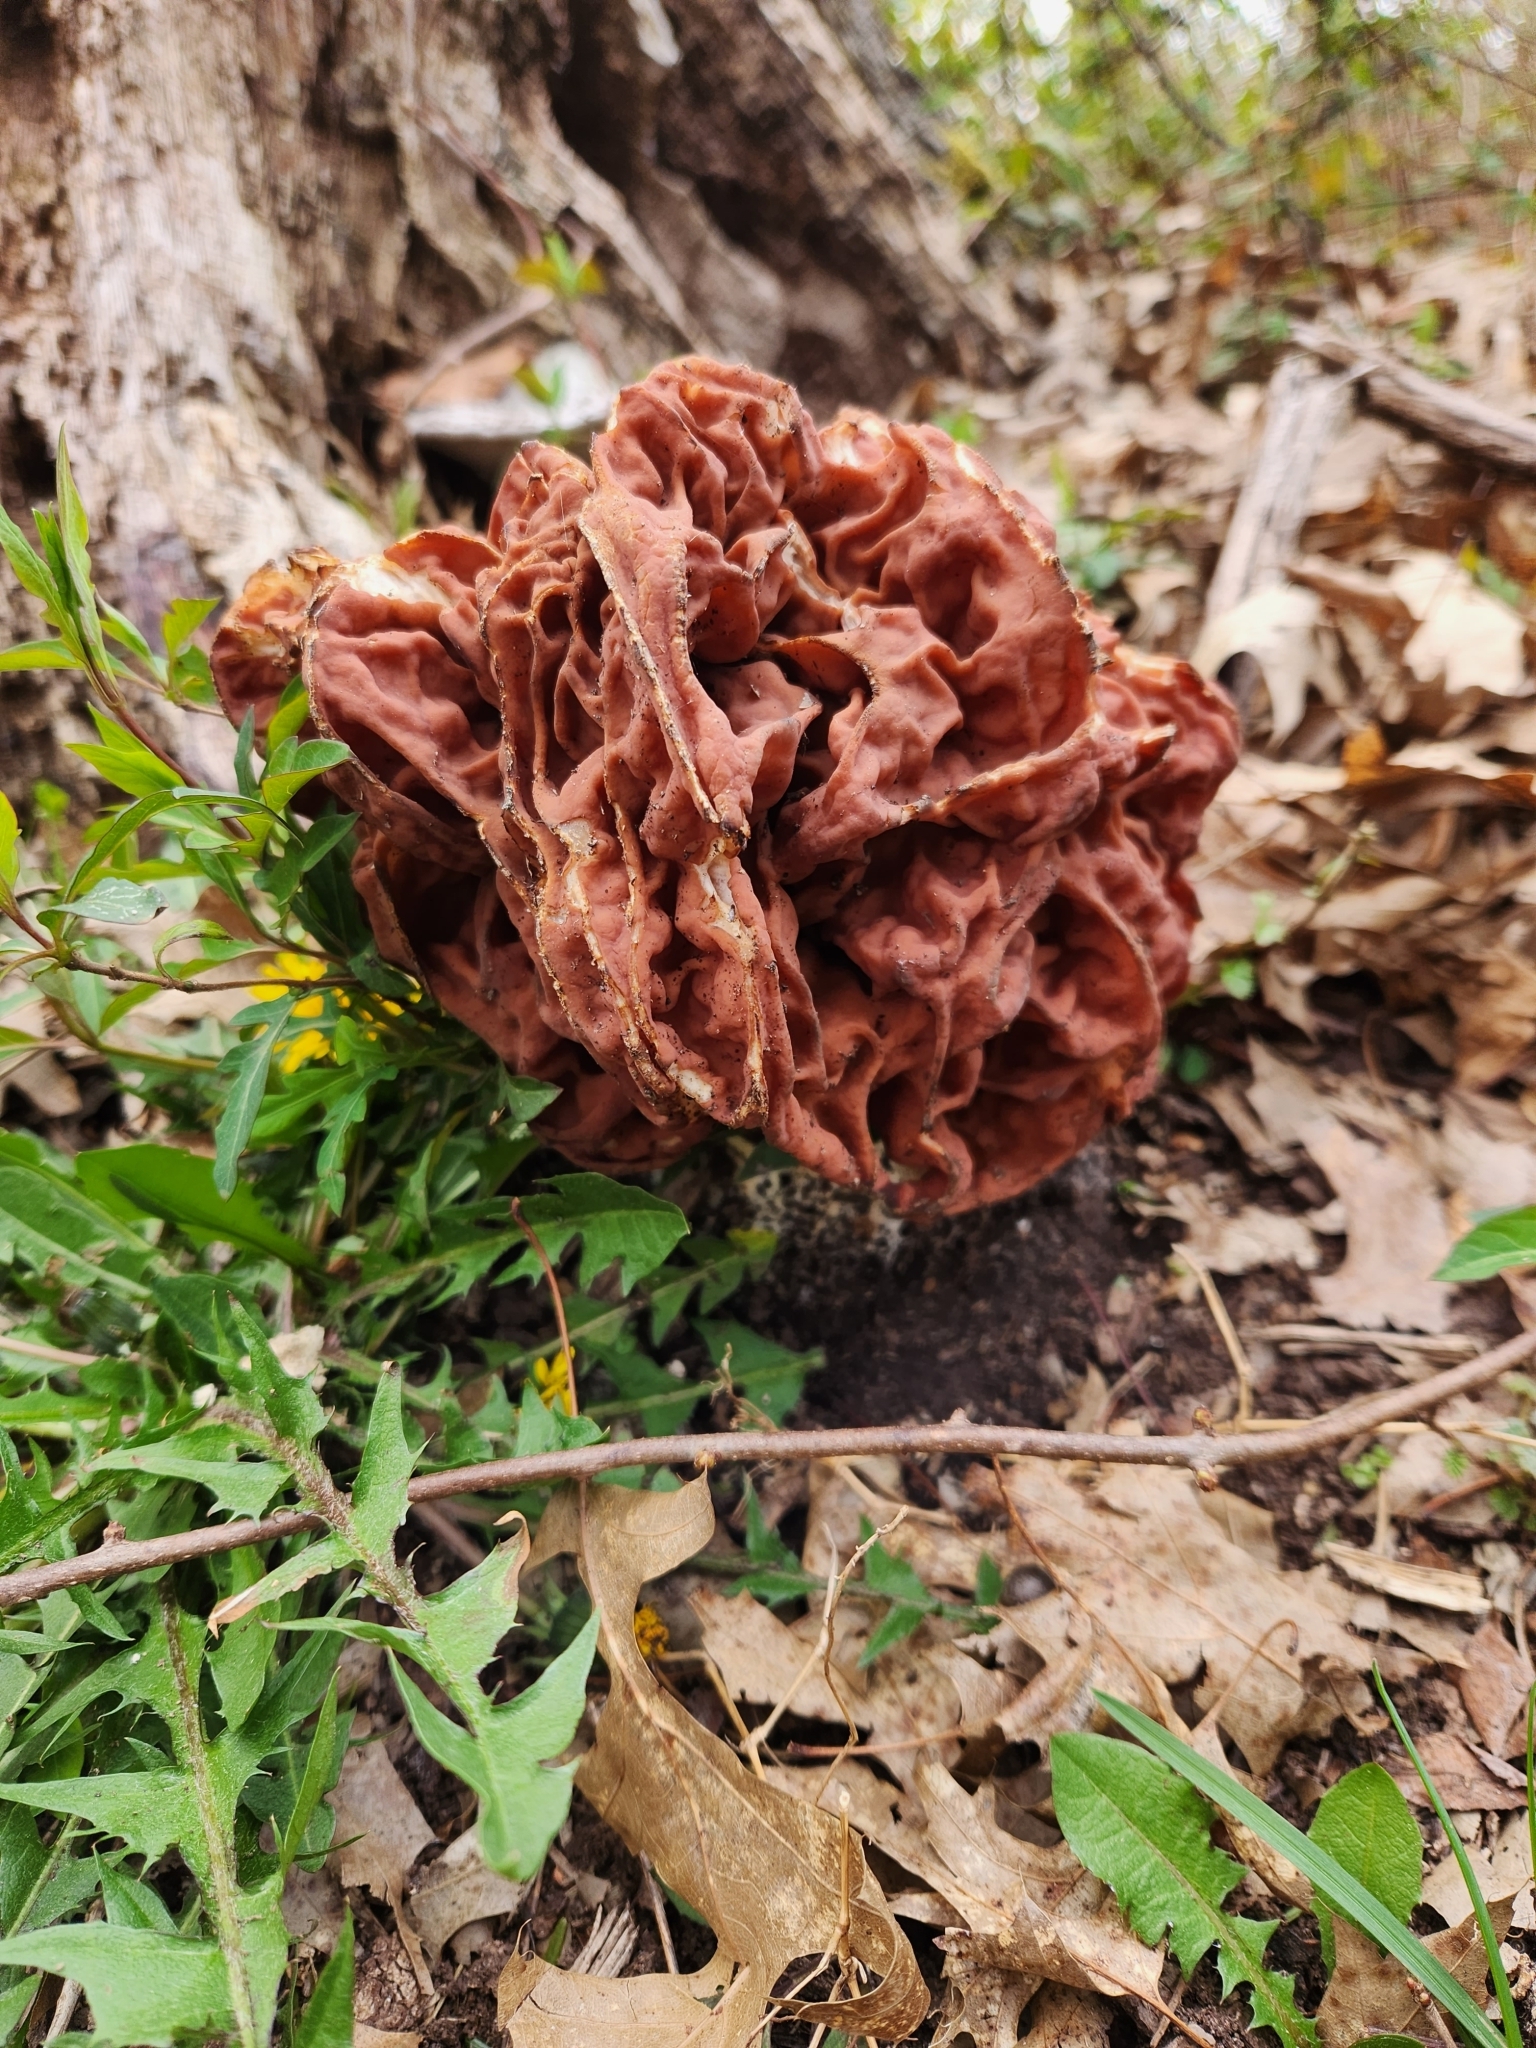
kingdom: Fungi
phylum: Ascomycota
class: Pezizomycetes
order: Pezizales
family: Discinaceae
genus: Discina
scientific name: Discina caroliniana
